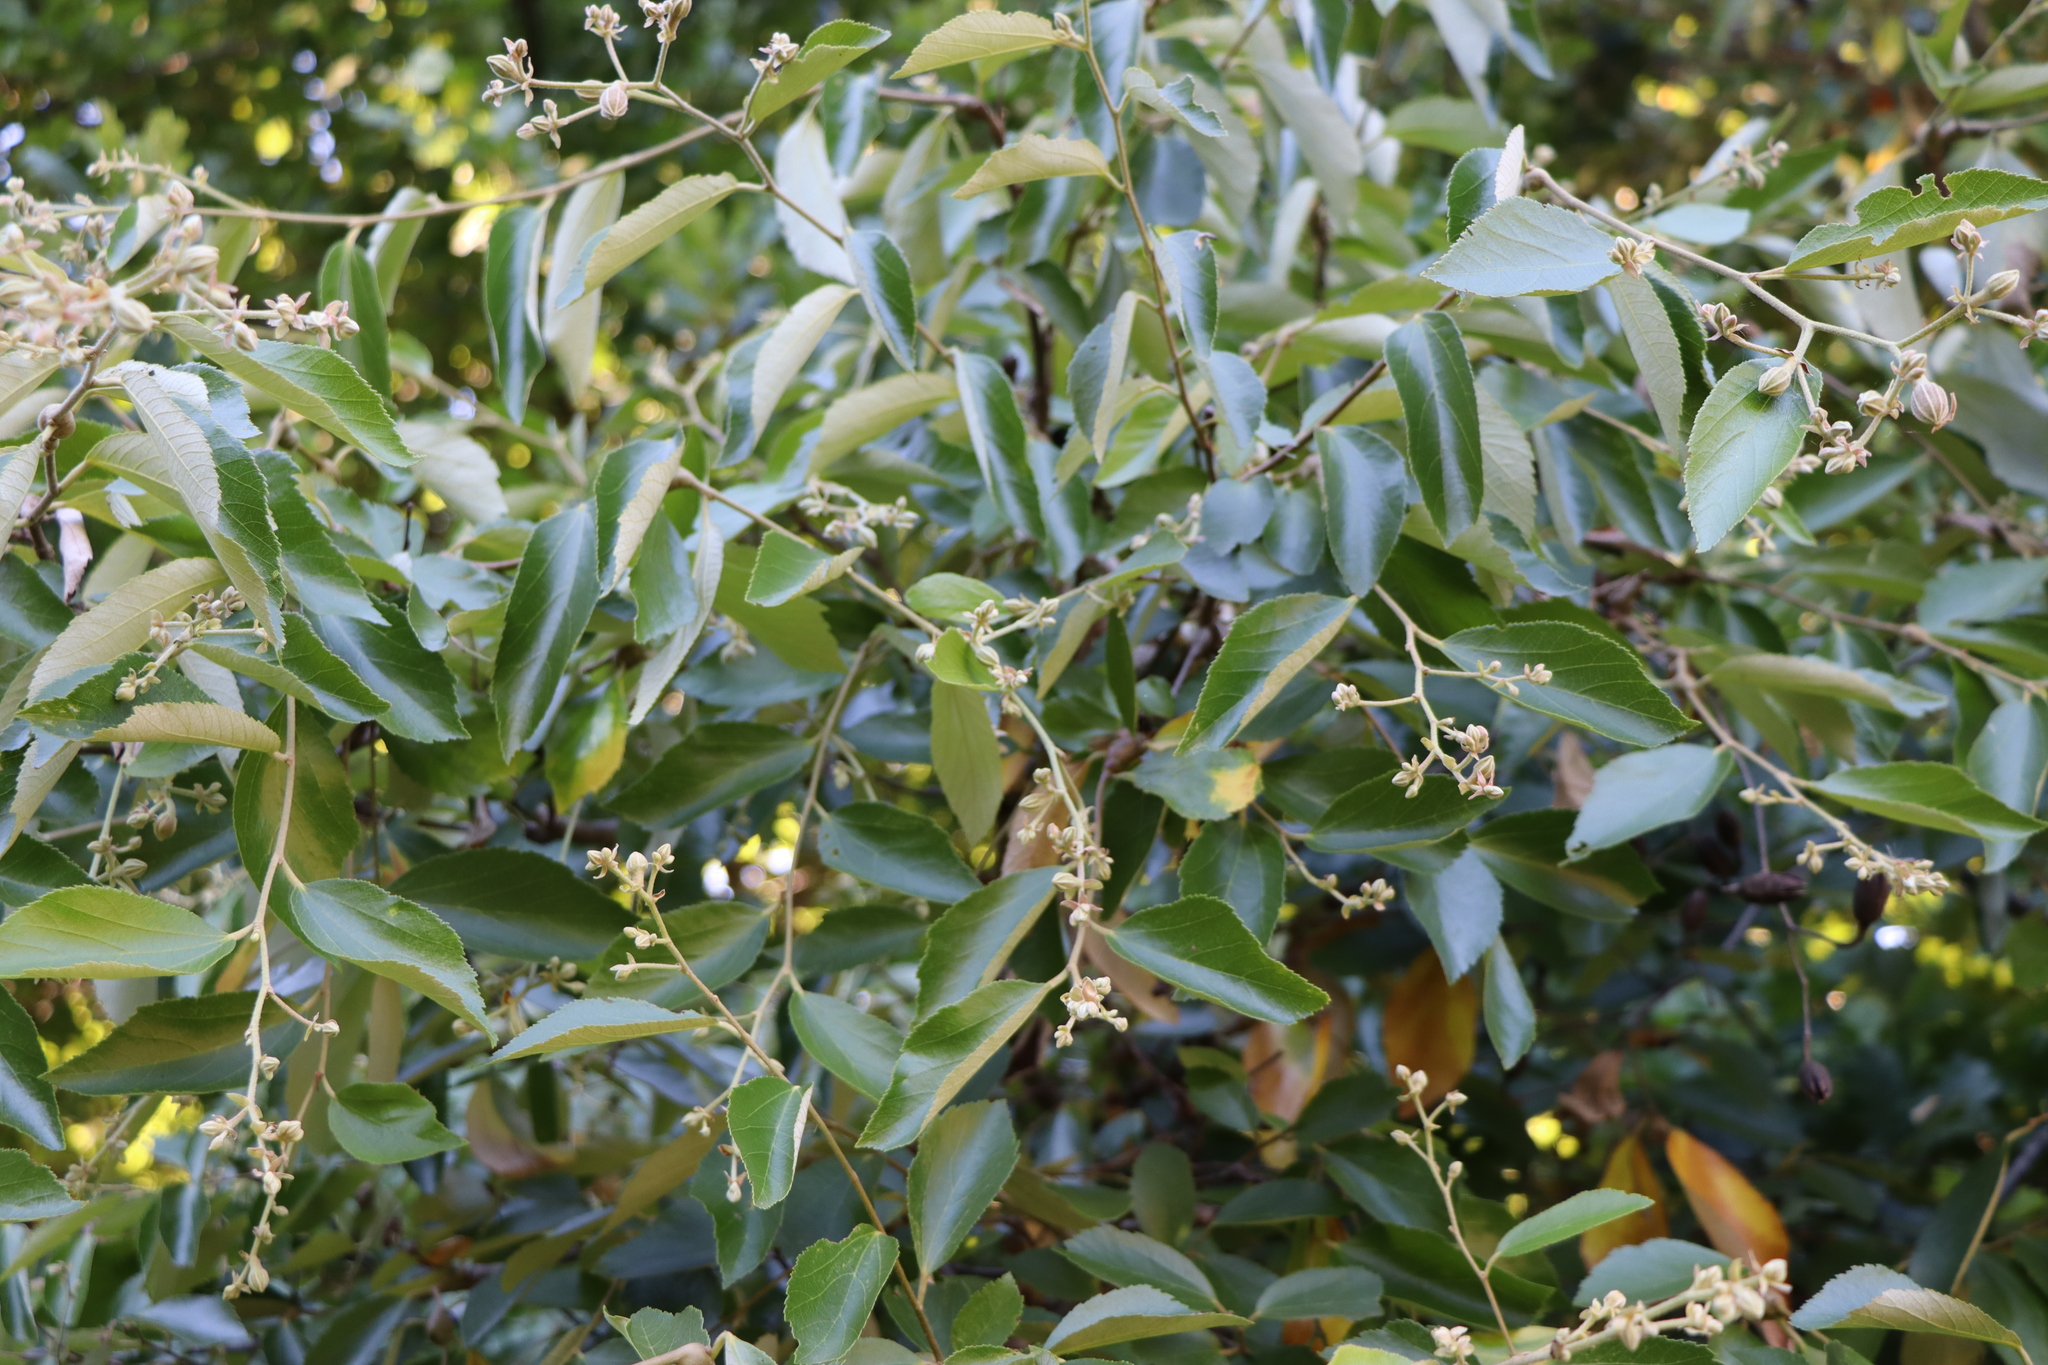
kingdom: Plantae
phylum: Tracheophyta
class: Magnoliopsida
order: Malvales
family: Malvaceae
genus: Luehea
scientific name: Luehea divaricata
